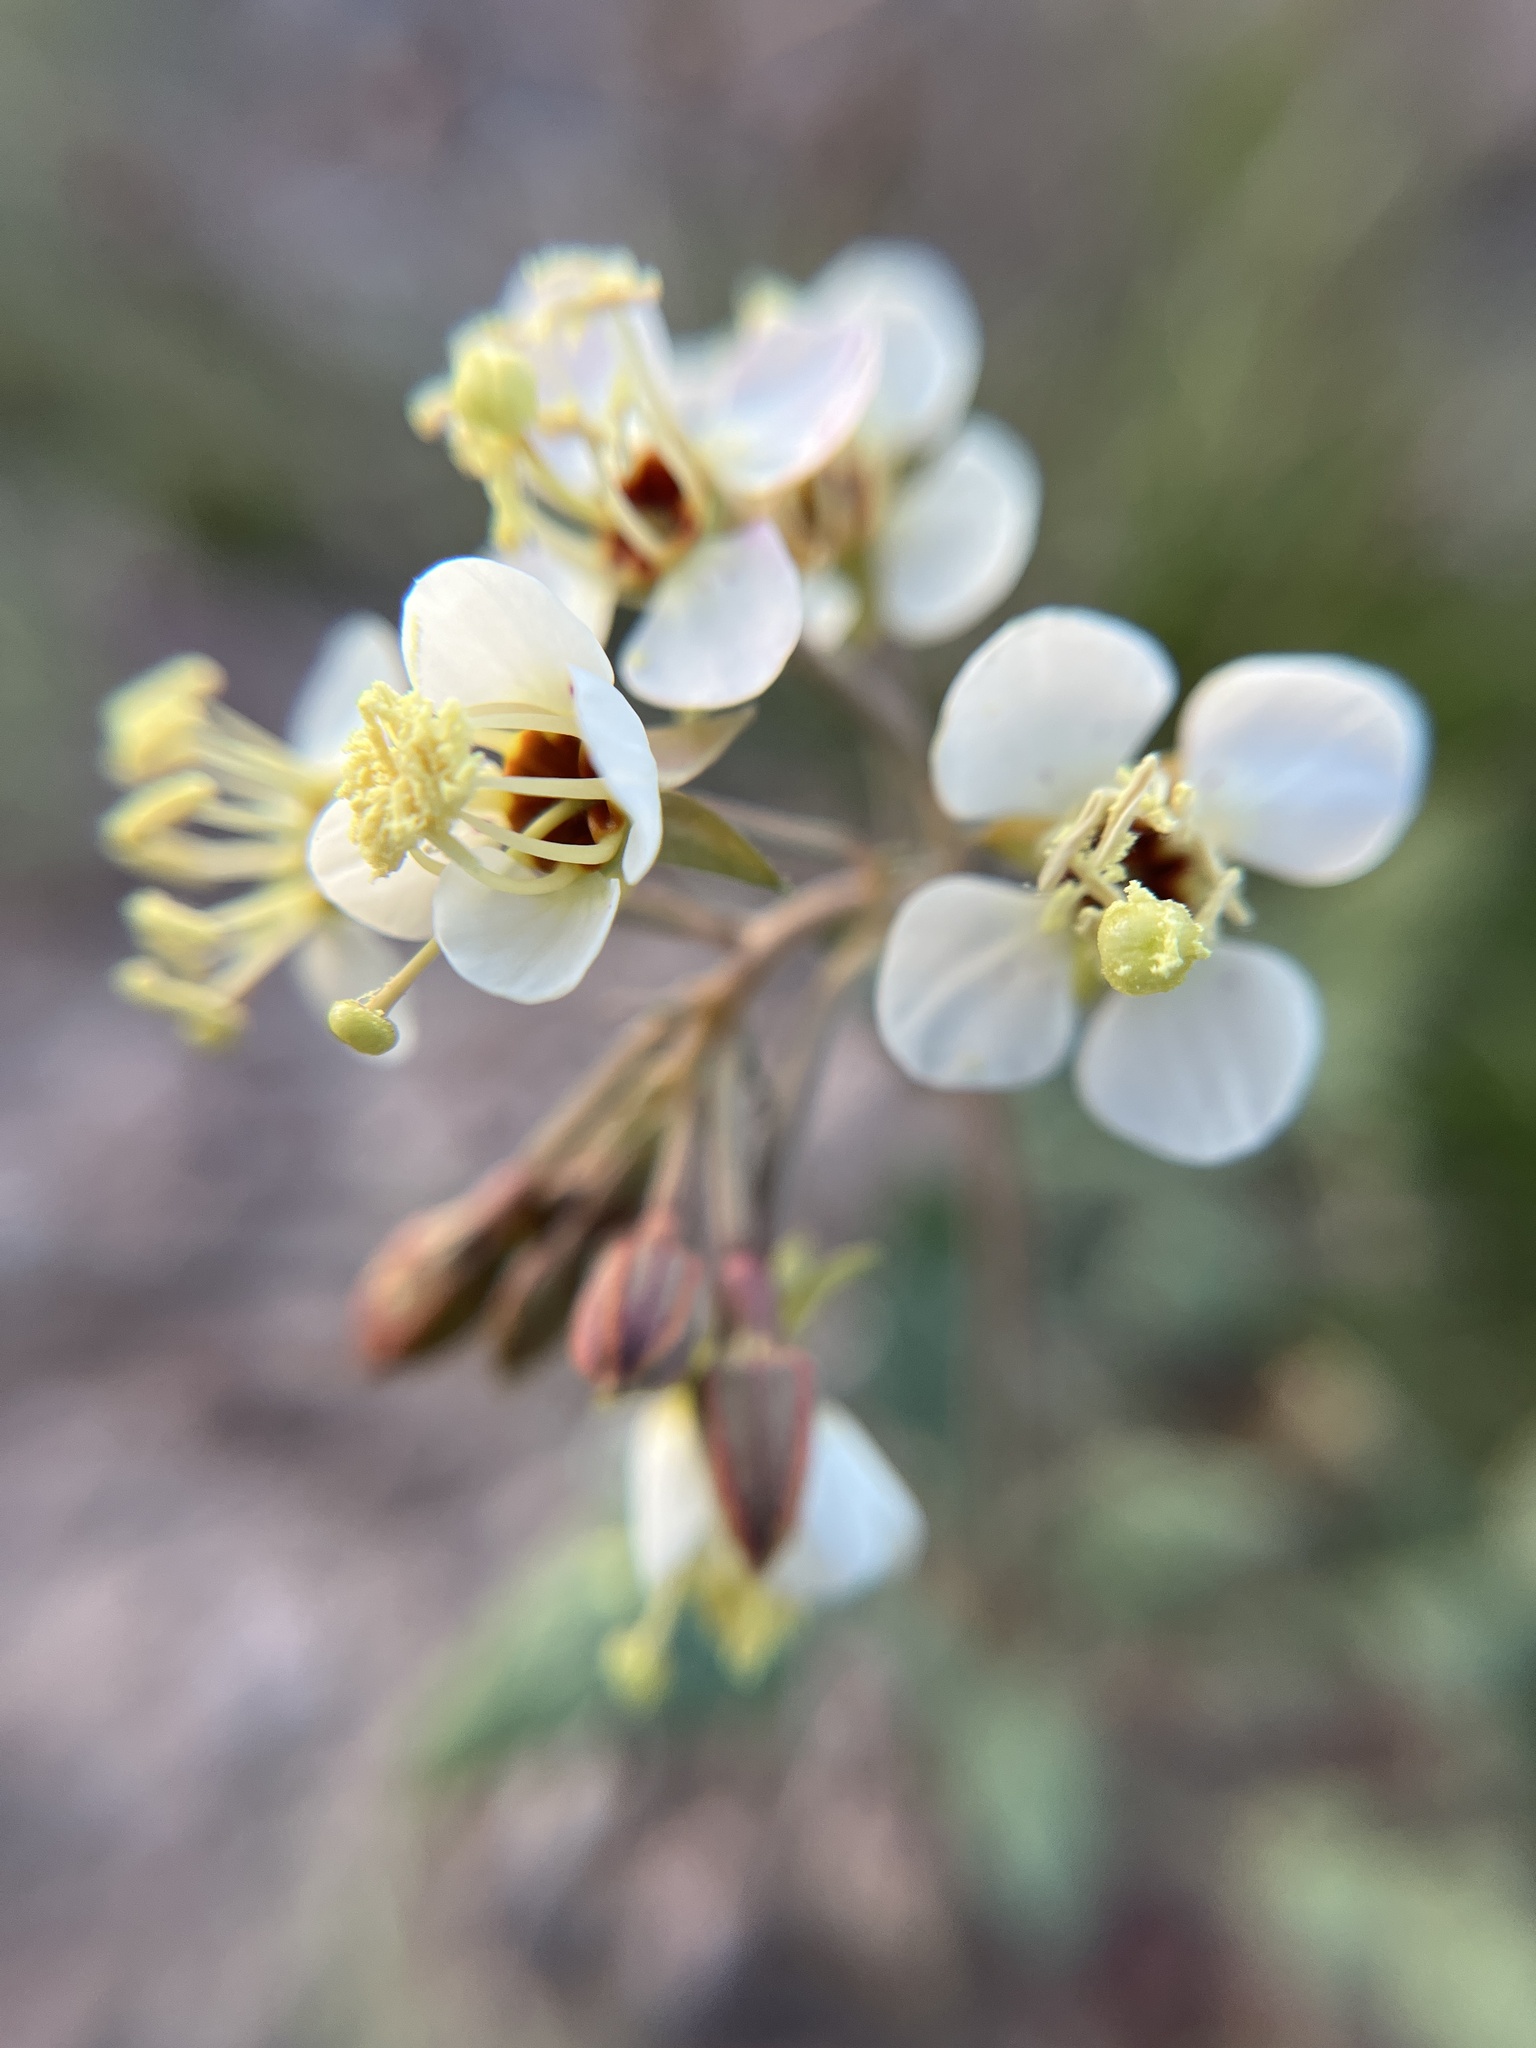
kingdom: Plantae
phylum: Tracheophyta
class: Magnoliopsida
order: Myrtales
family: Onagraceae
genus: Chylismia
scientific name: Chylismia claviformis
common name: Browneyes
